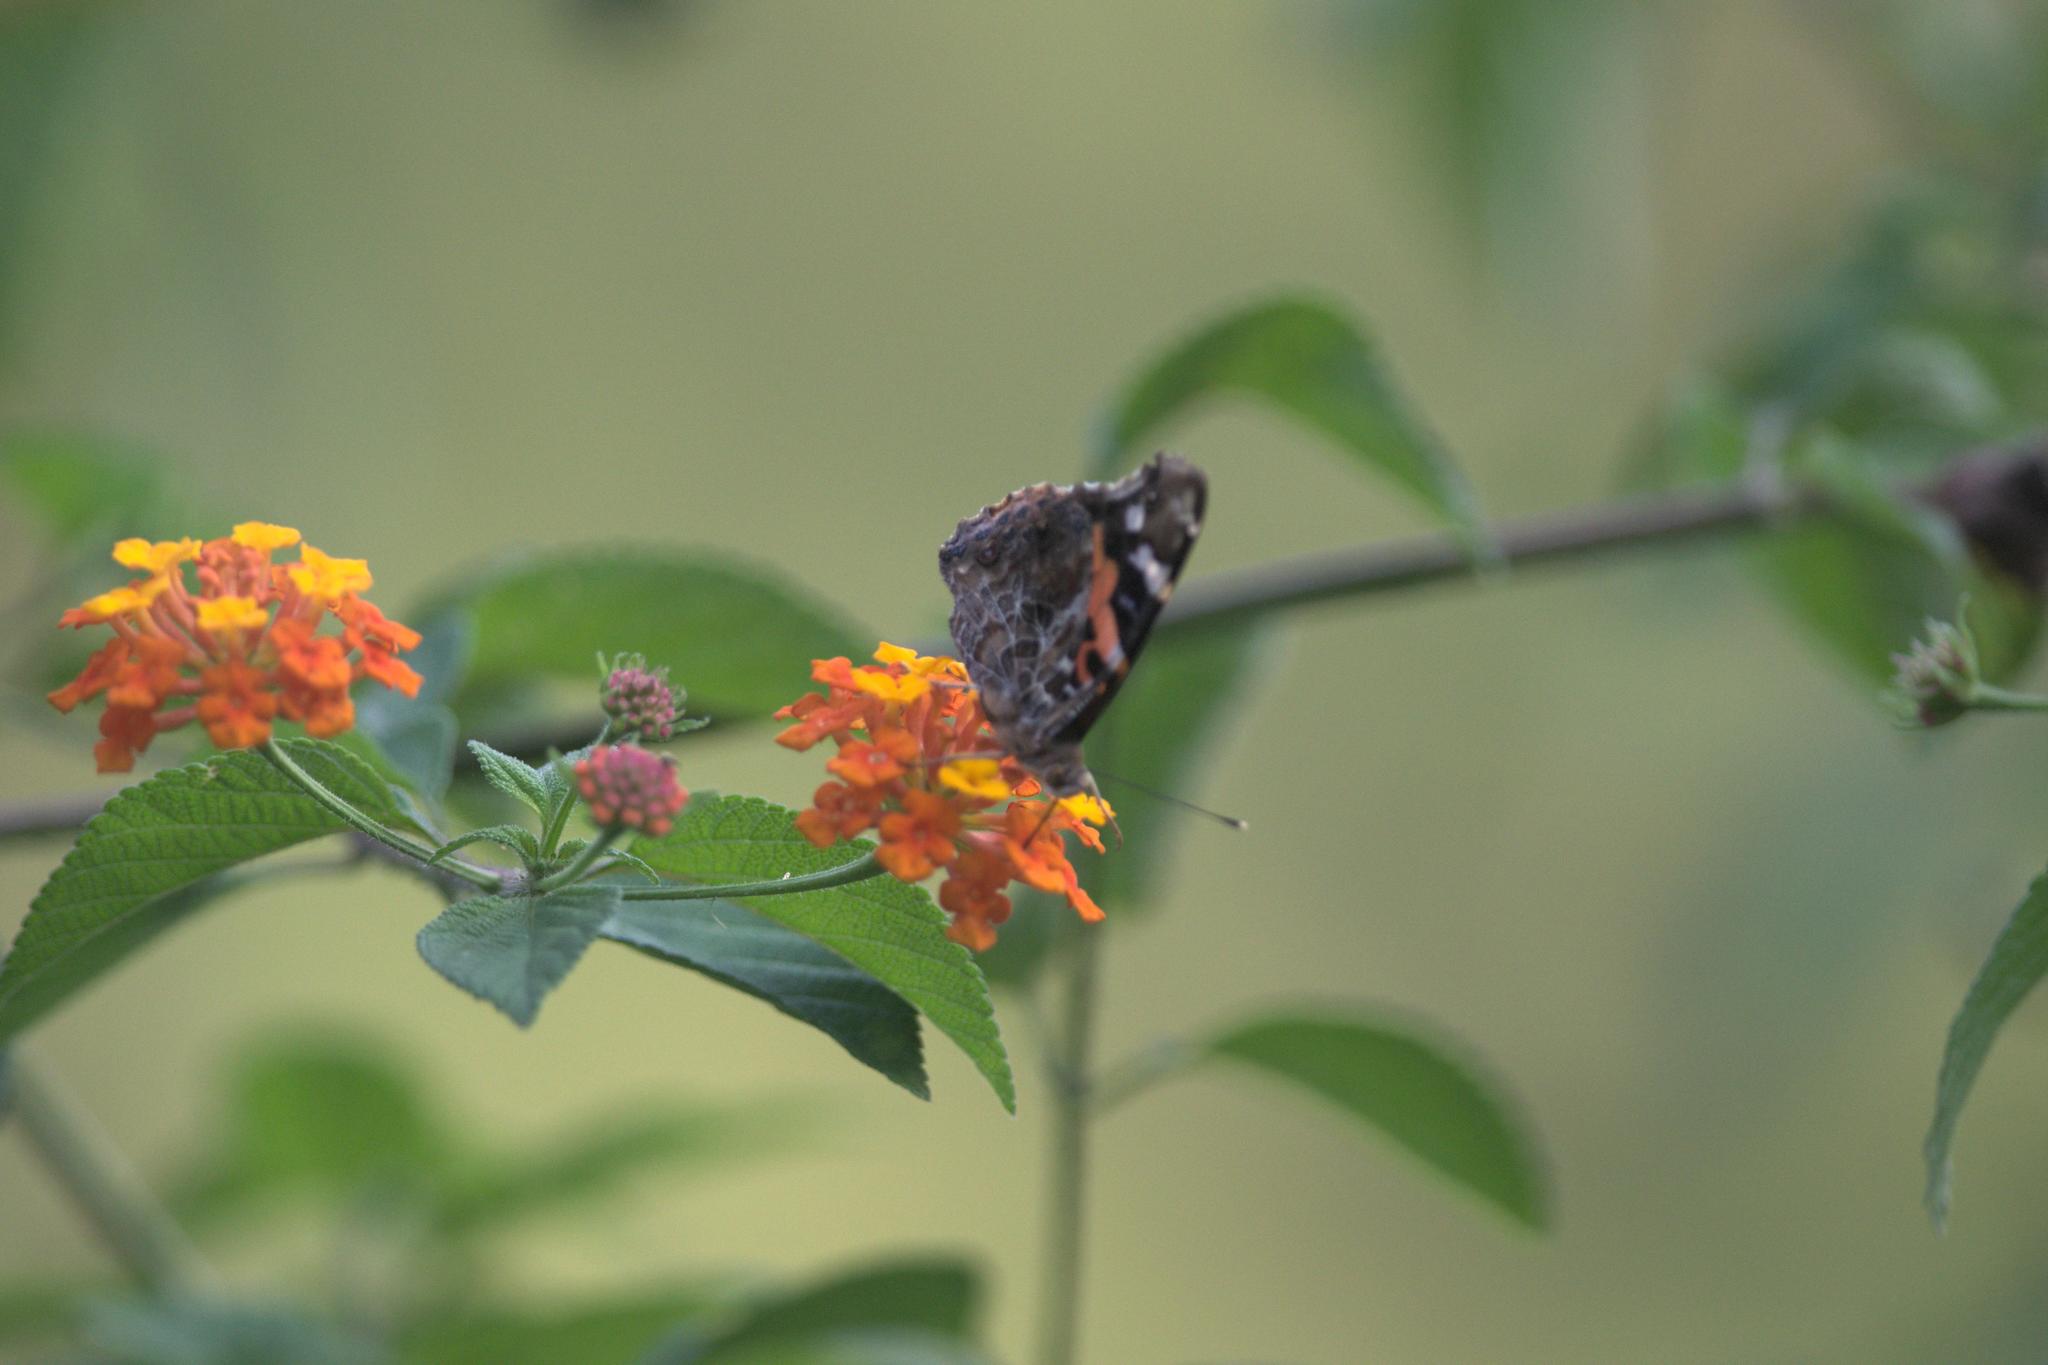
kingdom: Animalia
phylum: Arthropoda
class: Insecta
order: Lepidoptera
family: Nymphalidae
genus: Vanessa
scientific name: Vanessa indica
